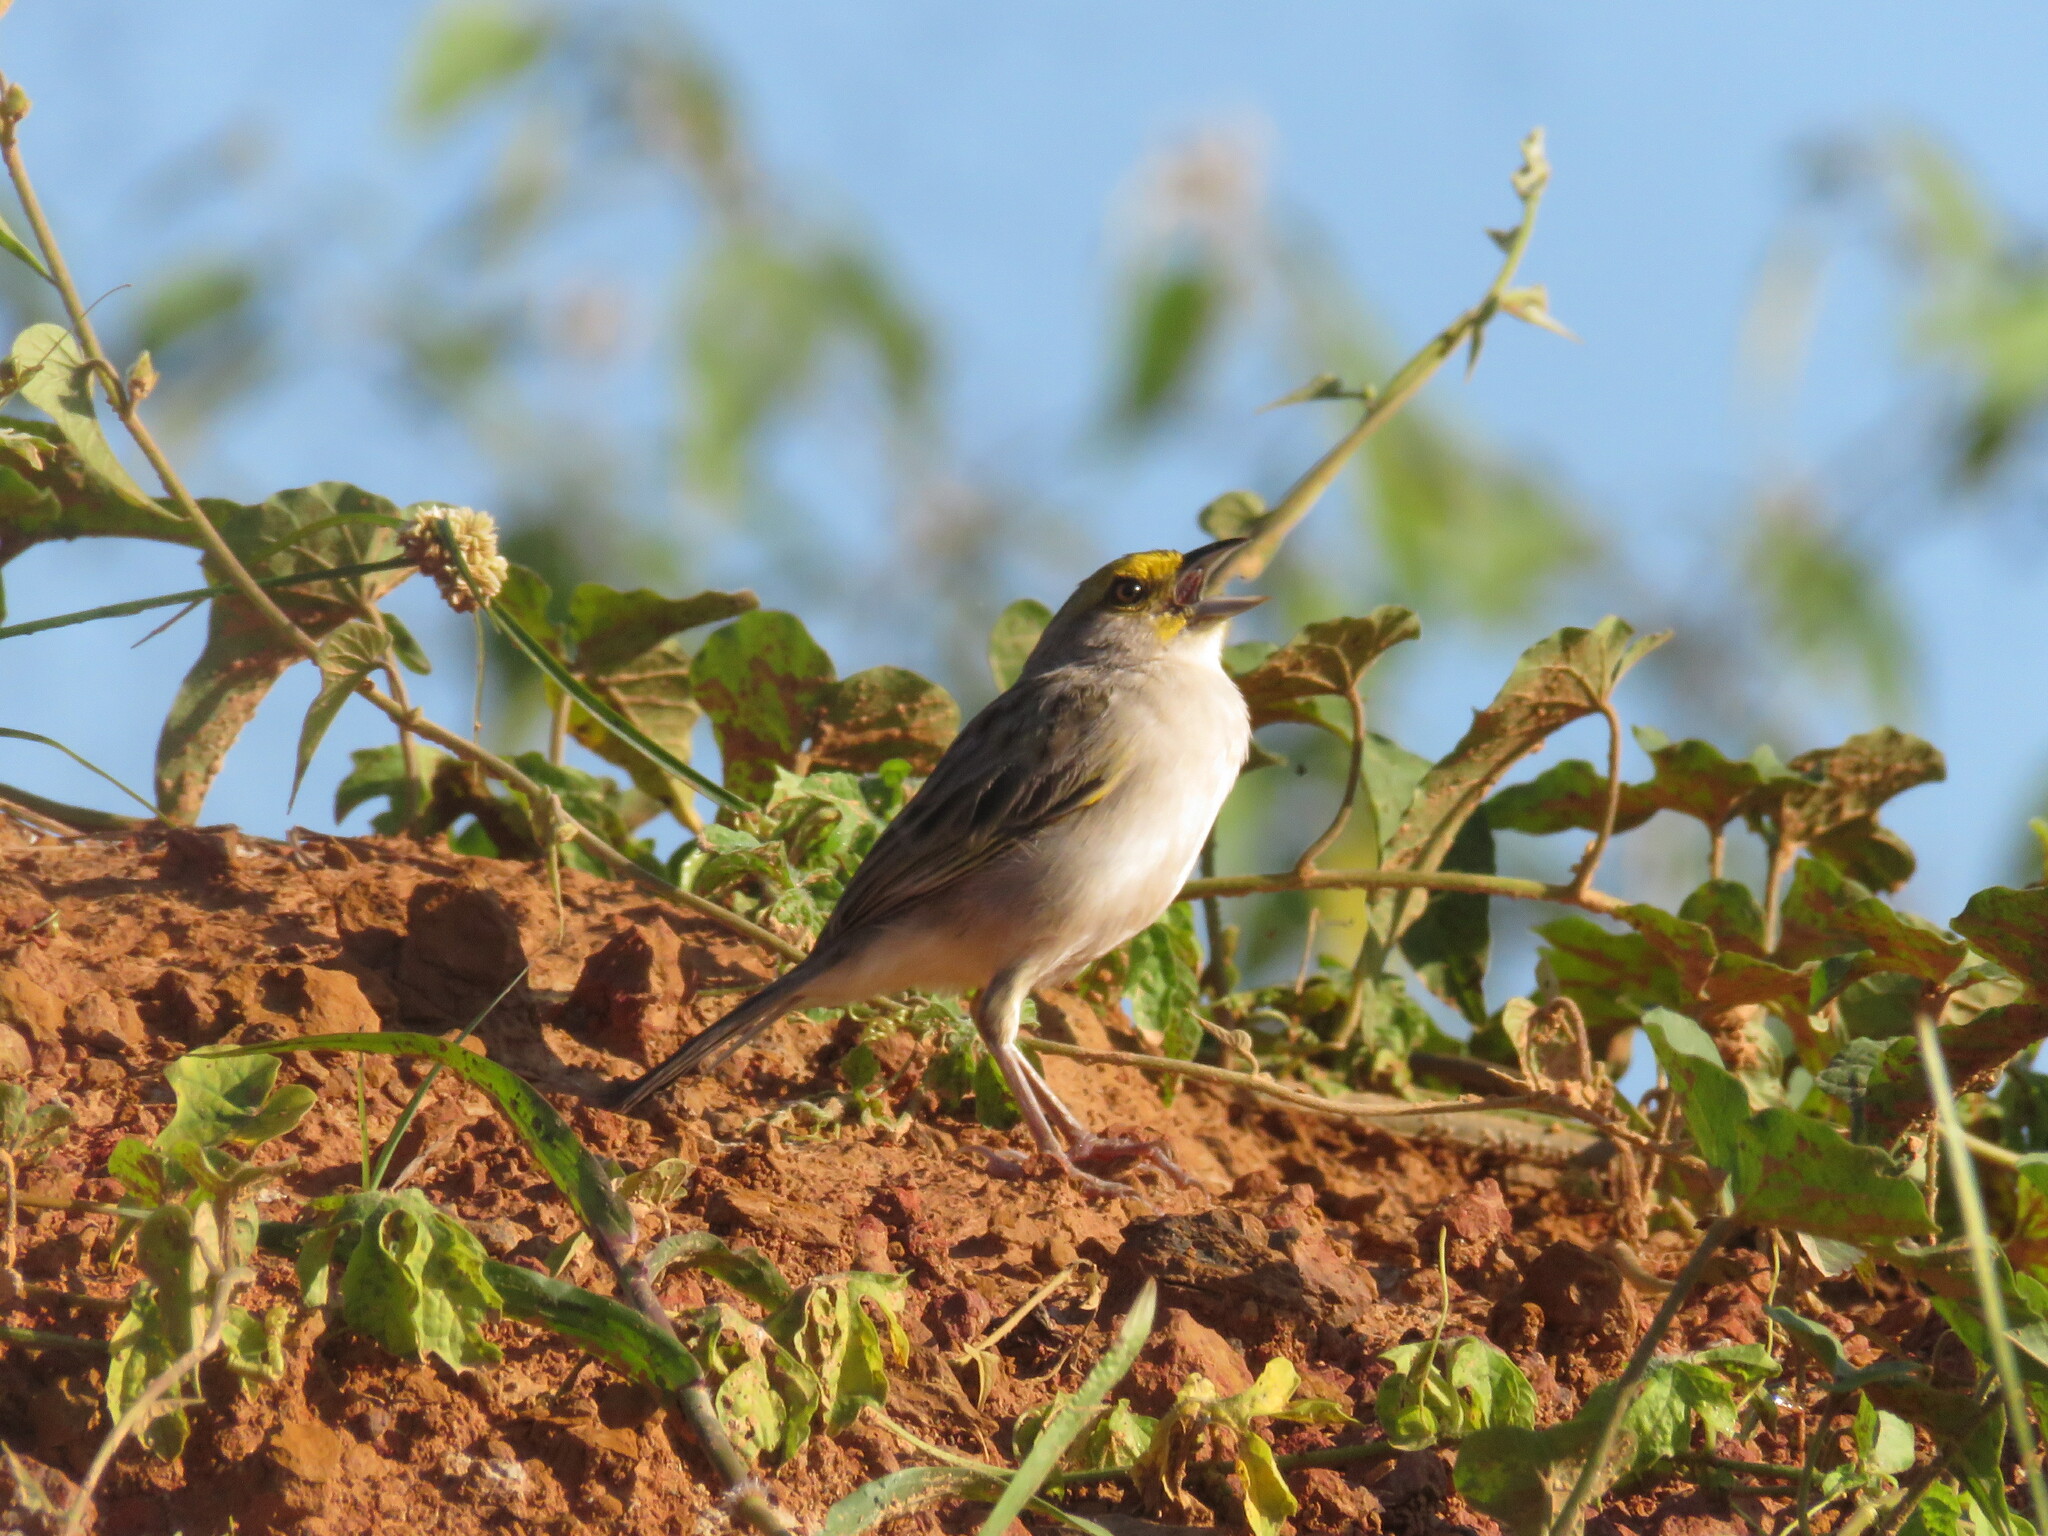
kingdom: Animalia
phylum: Chordata
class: Aves
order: Passeriformes
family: Passerellidae
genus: Ammodramus
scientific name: Ammodramus aurifrons
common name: Yellow-browed sparrow
